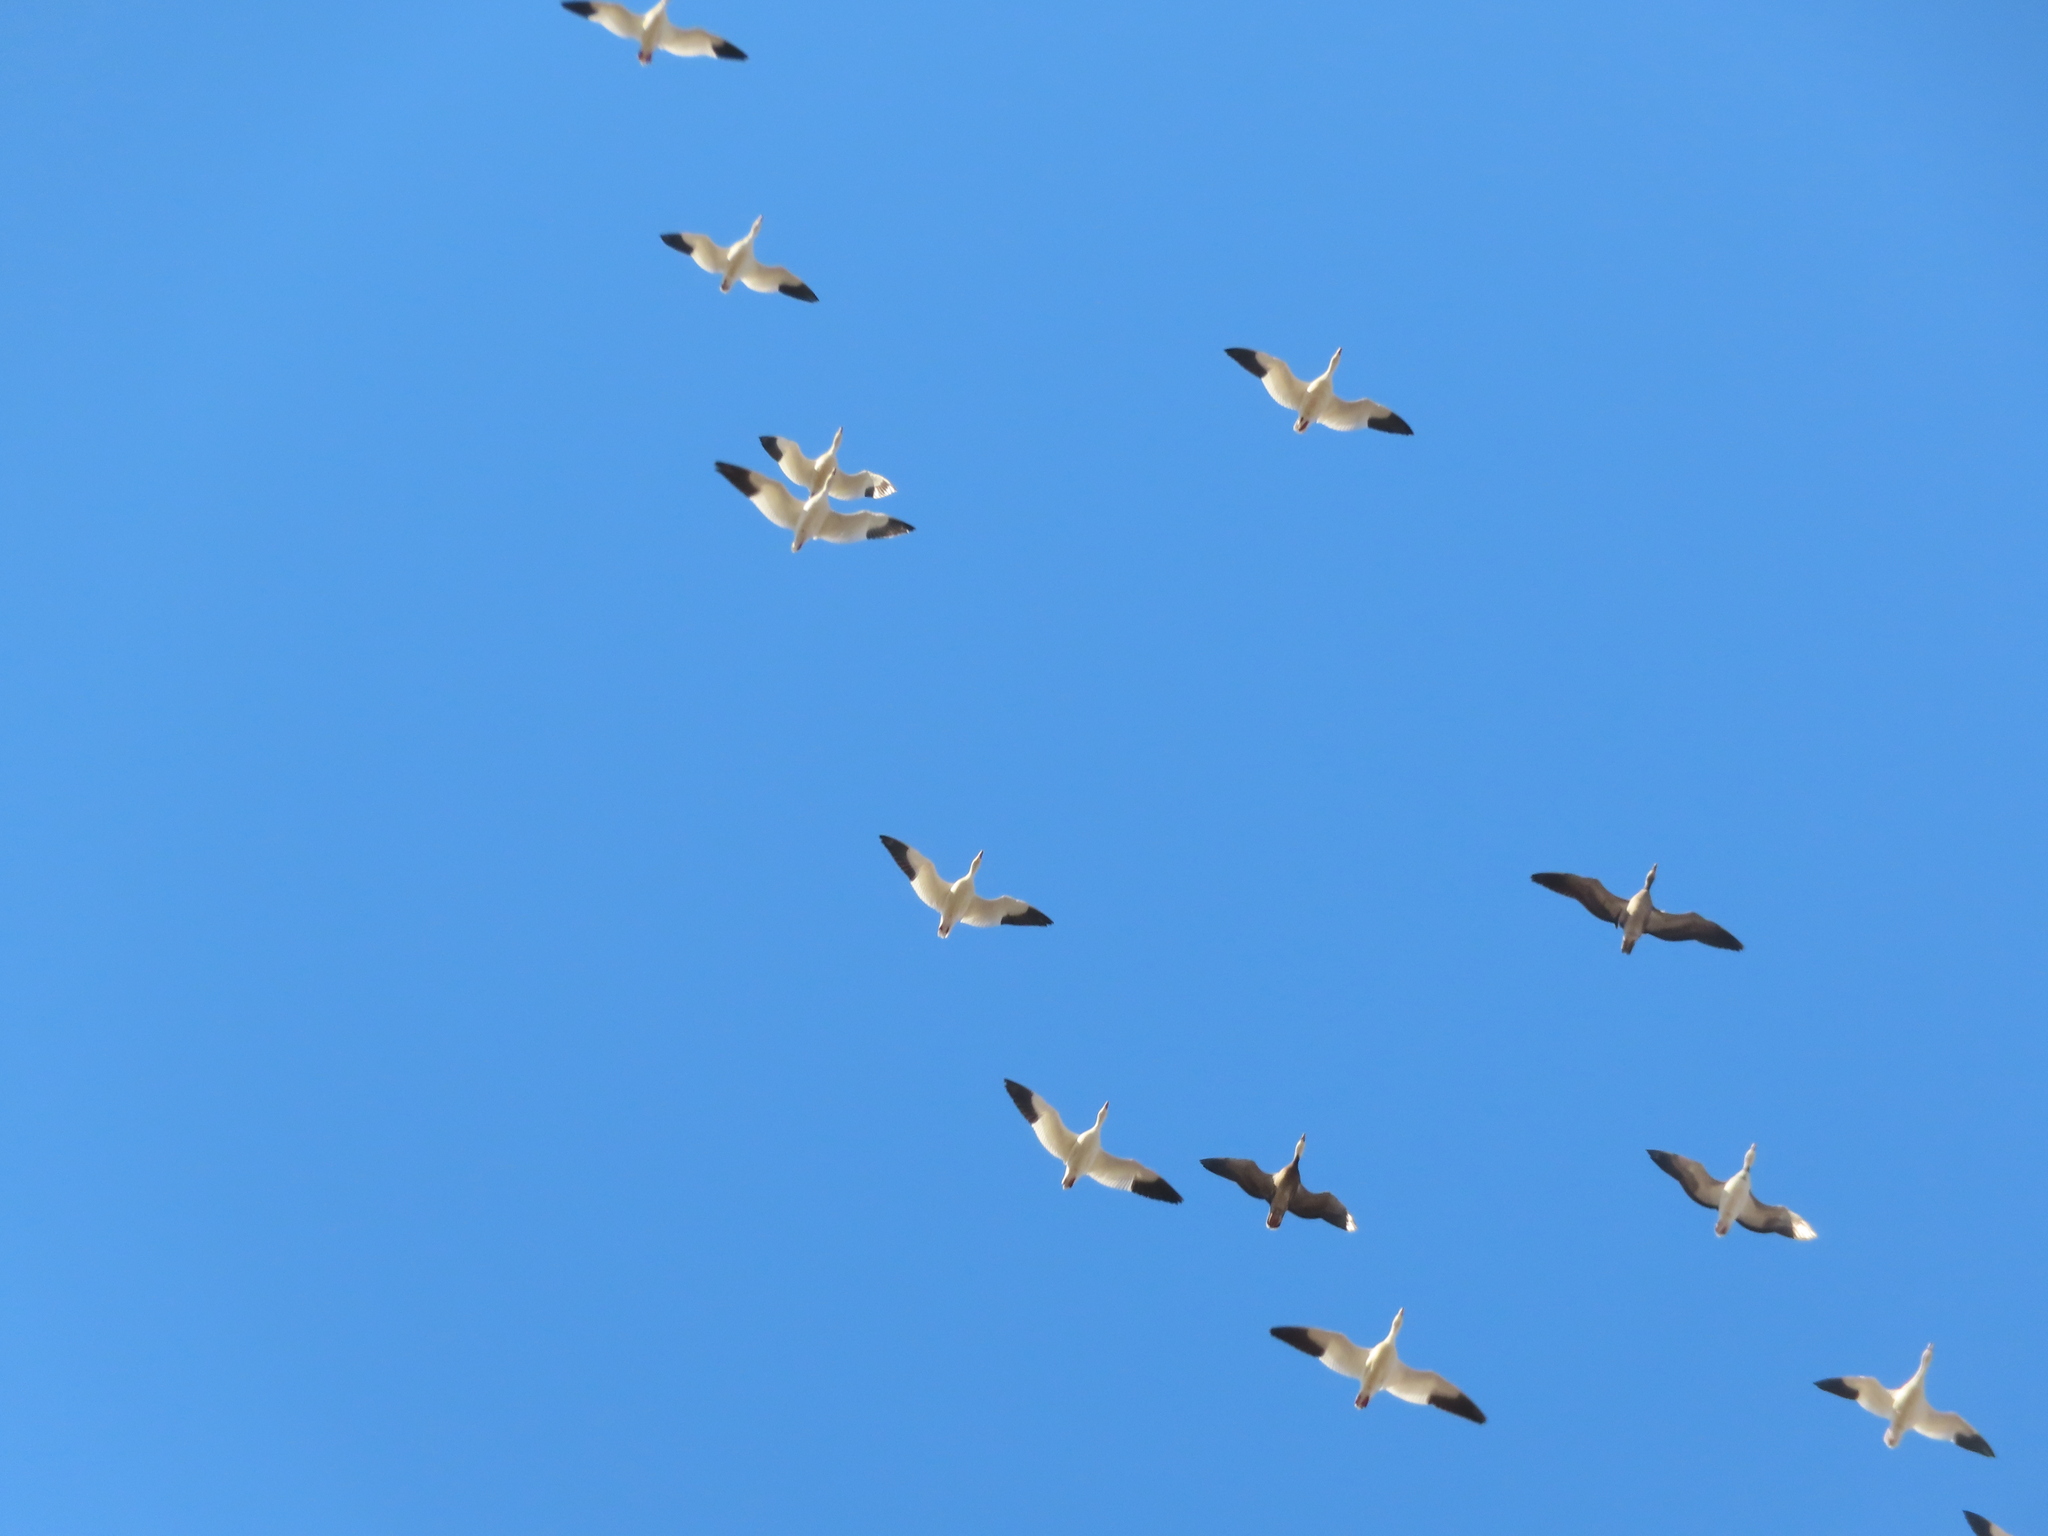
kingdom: Animalia
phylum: Chordata
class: Aves
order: Anseriformes
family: Anatidae
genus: Anser
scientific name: Anser caerulescens
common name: Snow goose
